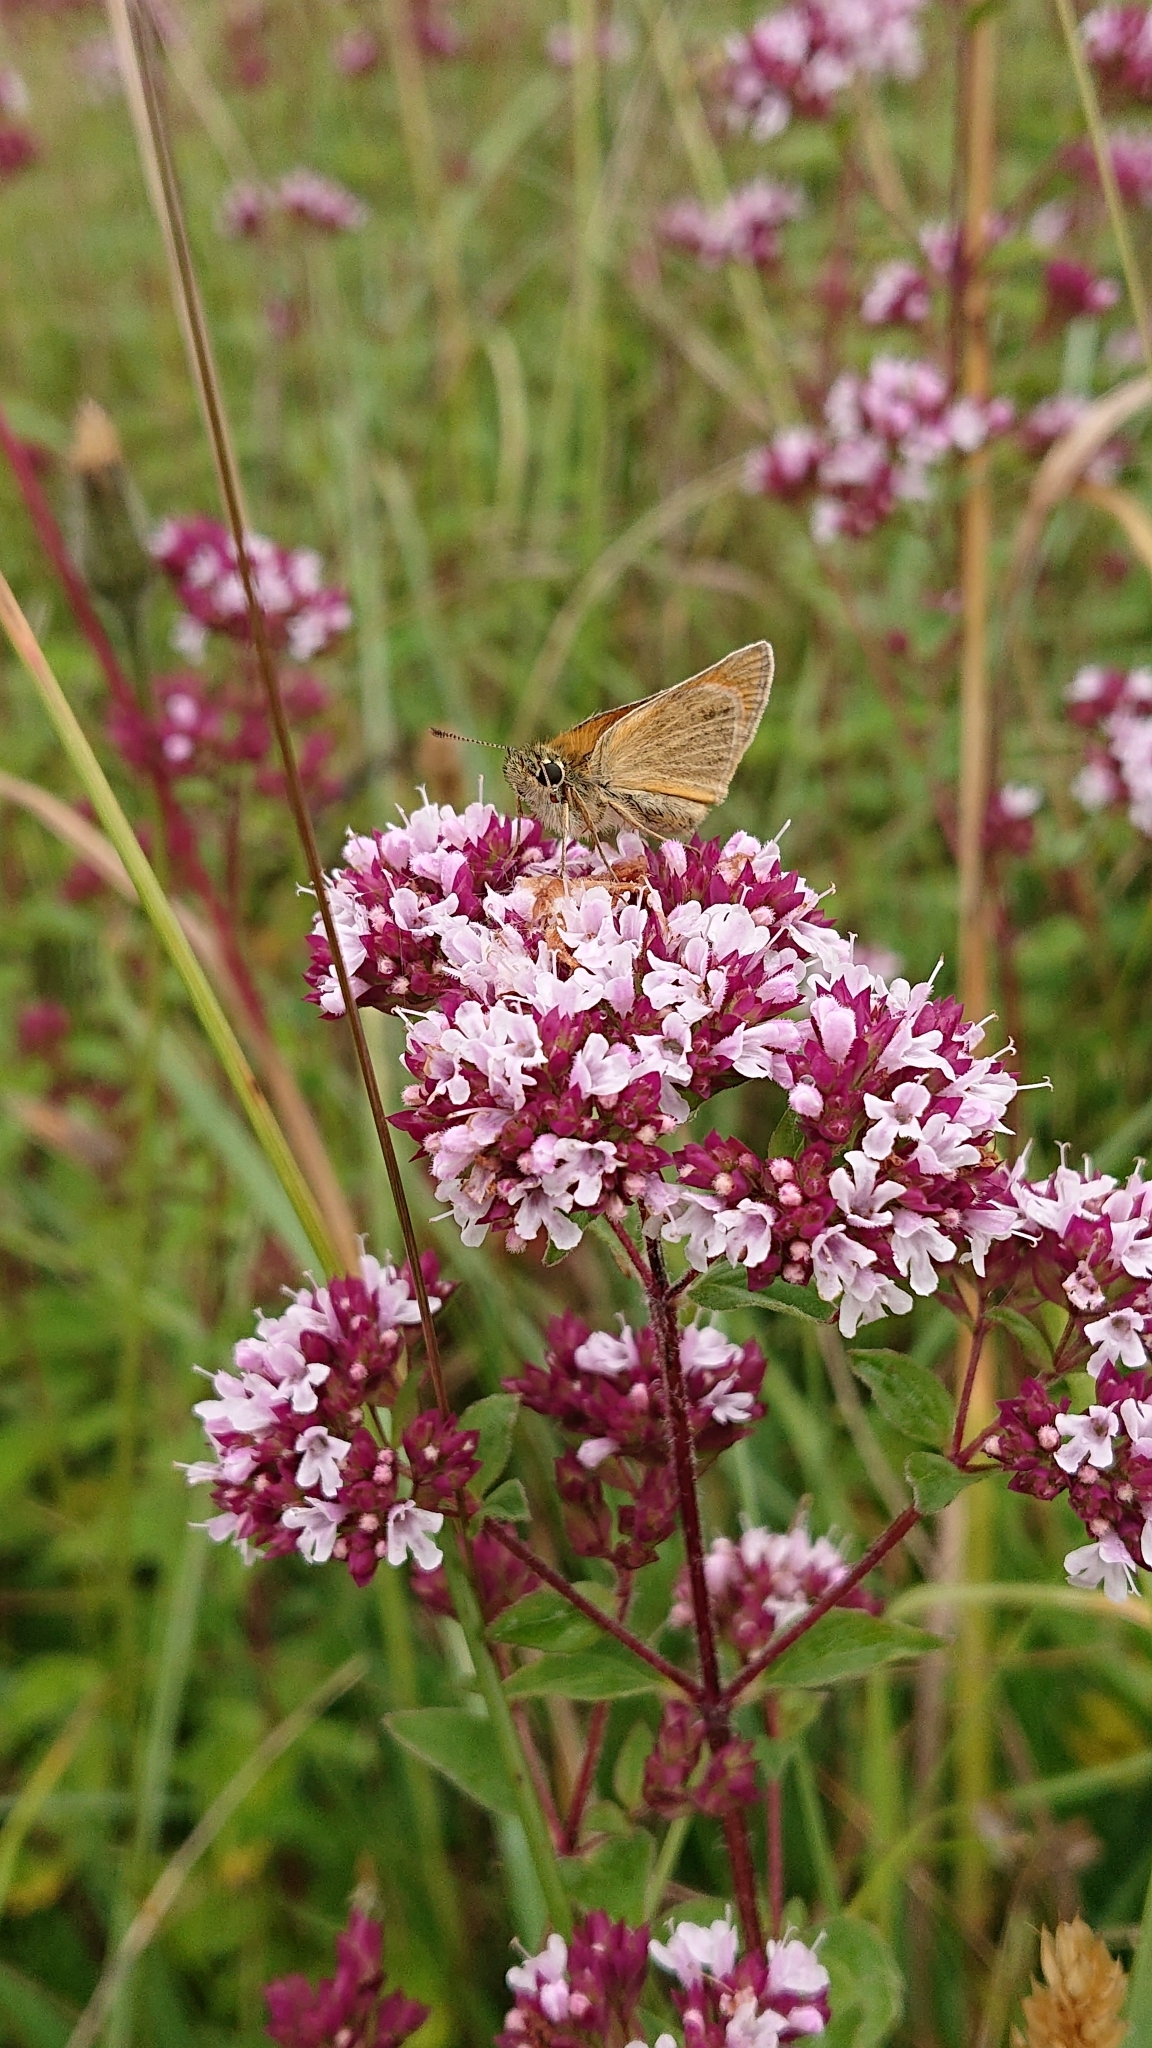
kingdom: Plantae
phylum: Tracheophyta
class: Magnoliopsida
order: Lamiales
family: Lamiaceae
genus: Origanum
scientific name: Origanum vulgare
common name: Wild marjoram
